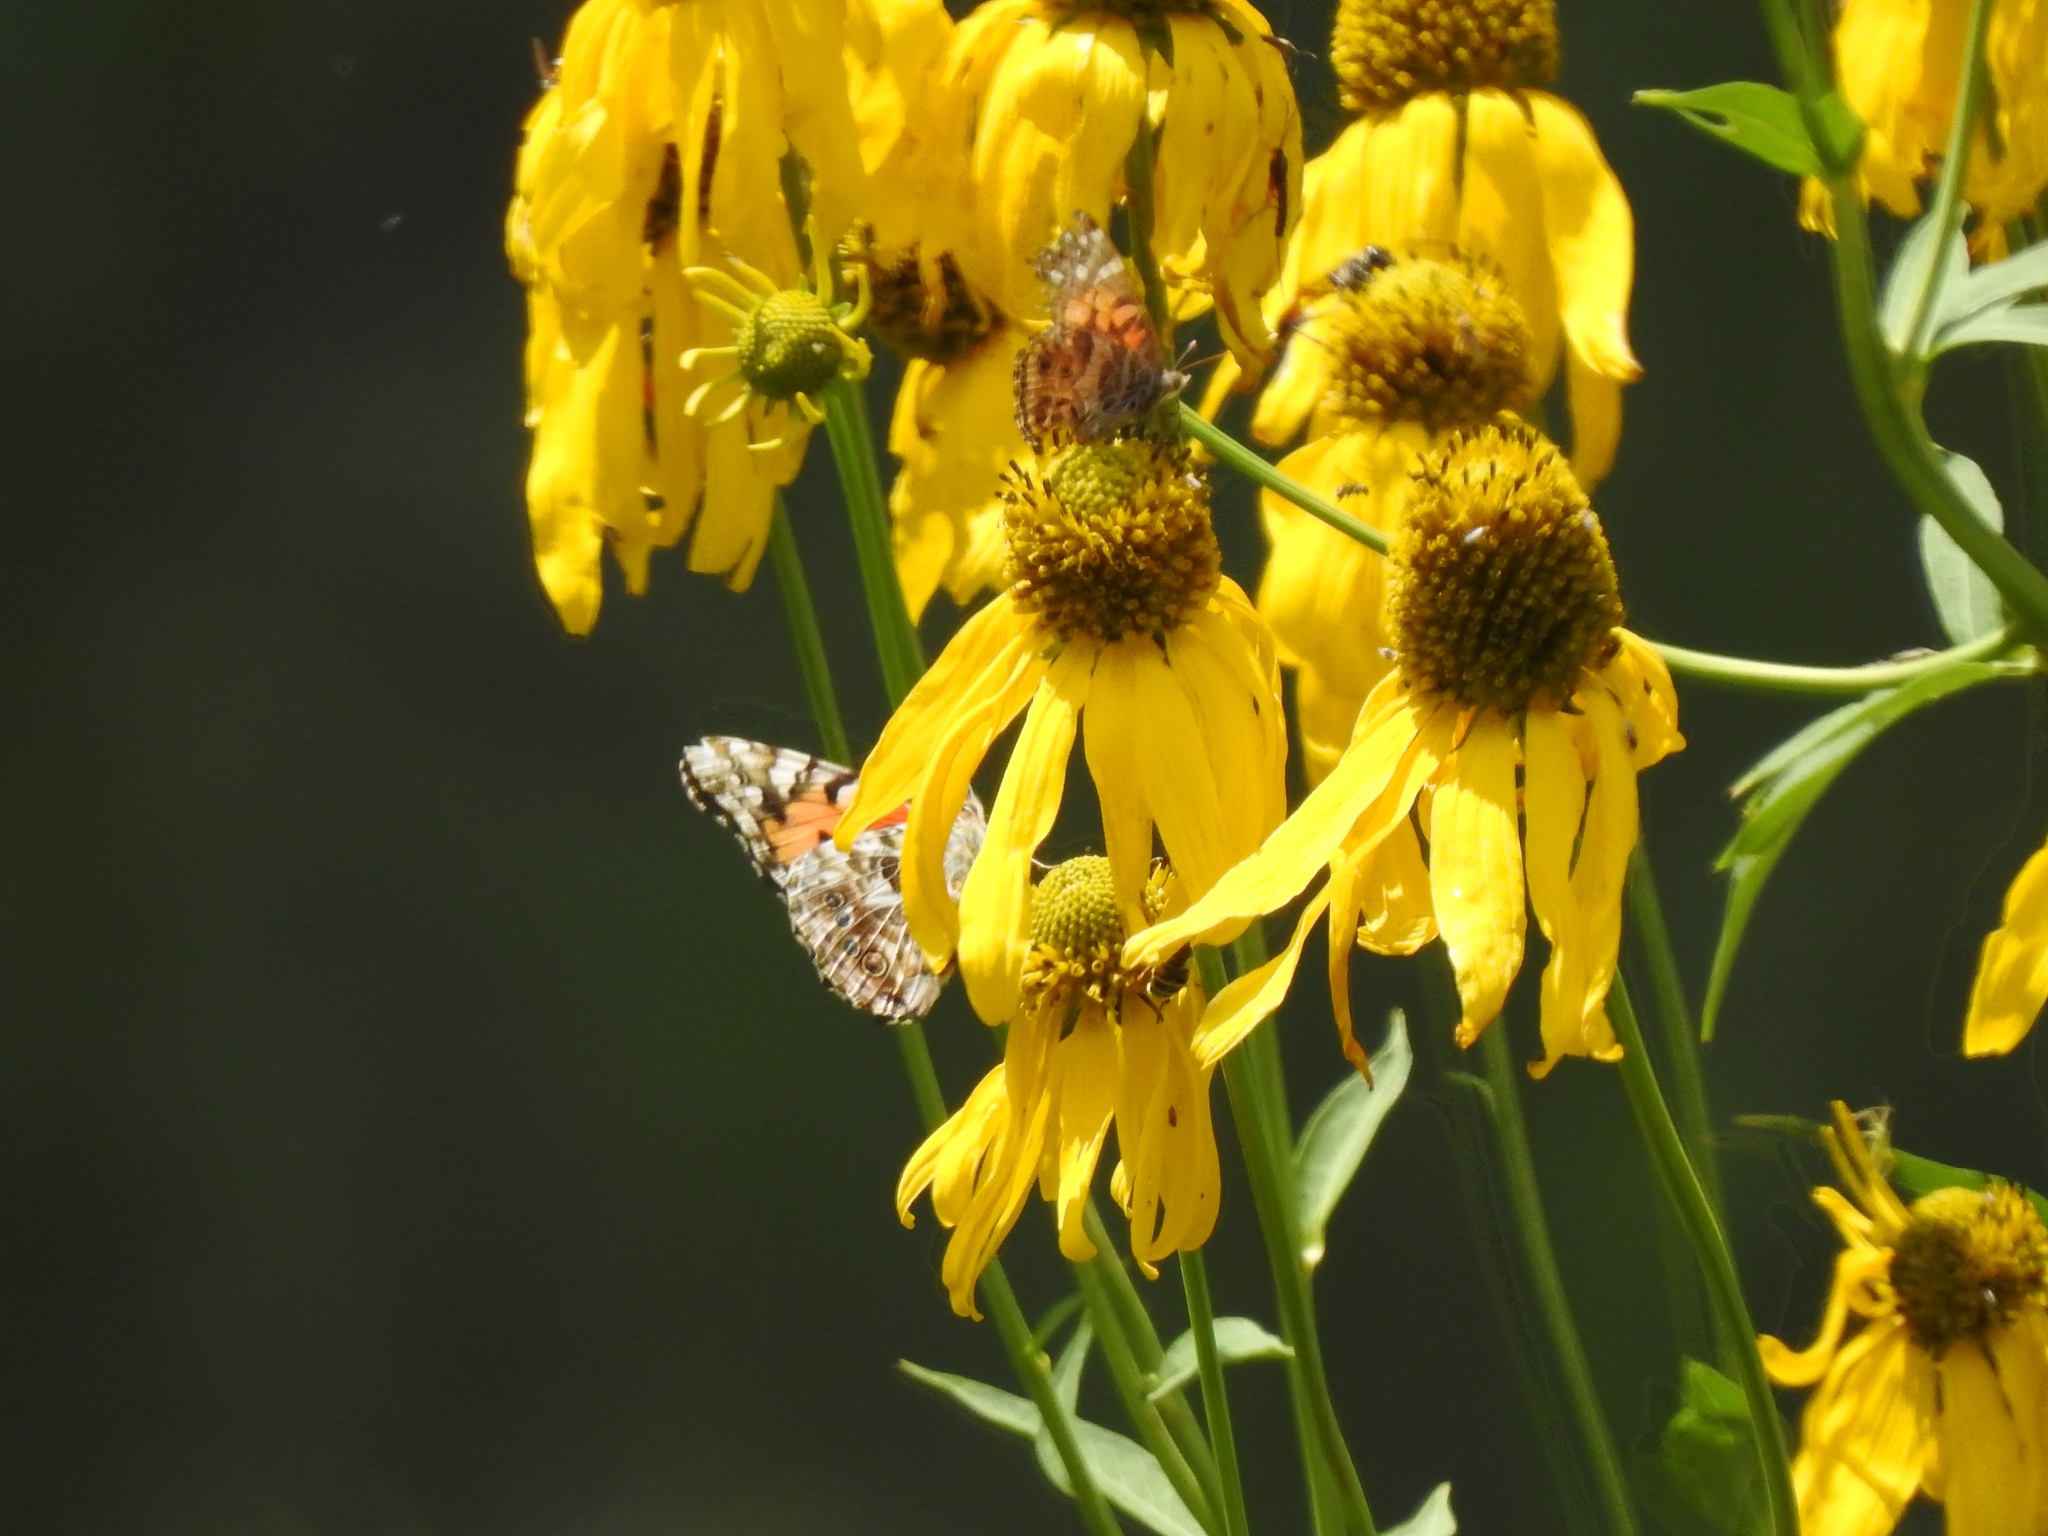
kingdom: Plantae
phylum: Tracheophyta
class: Magnoliopsida
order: Asterales
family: Asteraceae
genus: Rudbeckia
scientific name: Rudbeckia laciniata
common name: Coneflower
